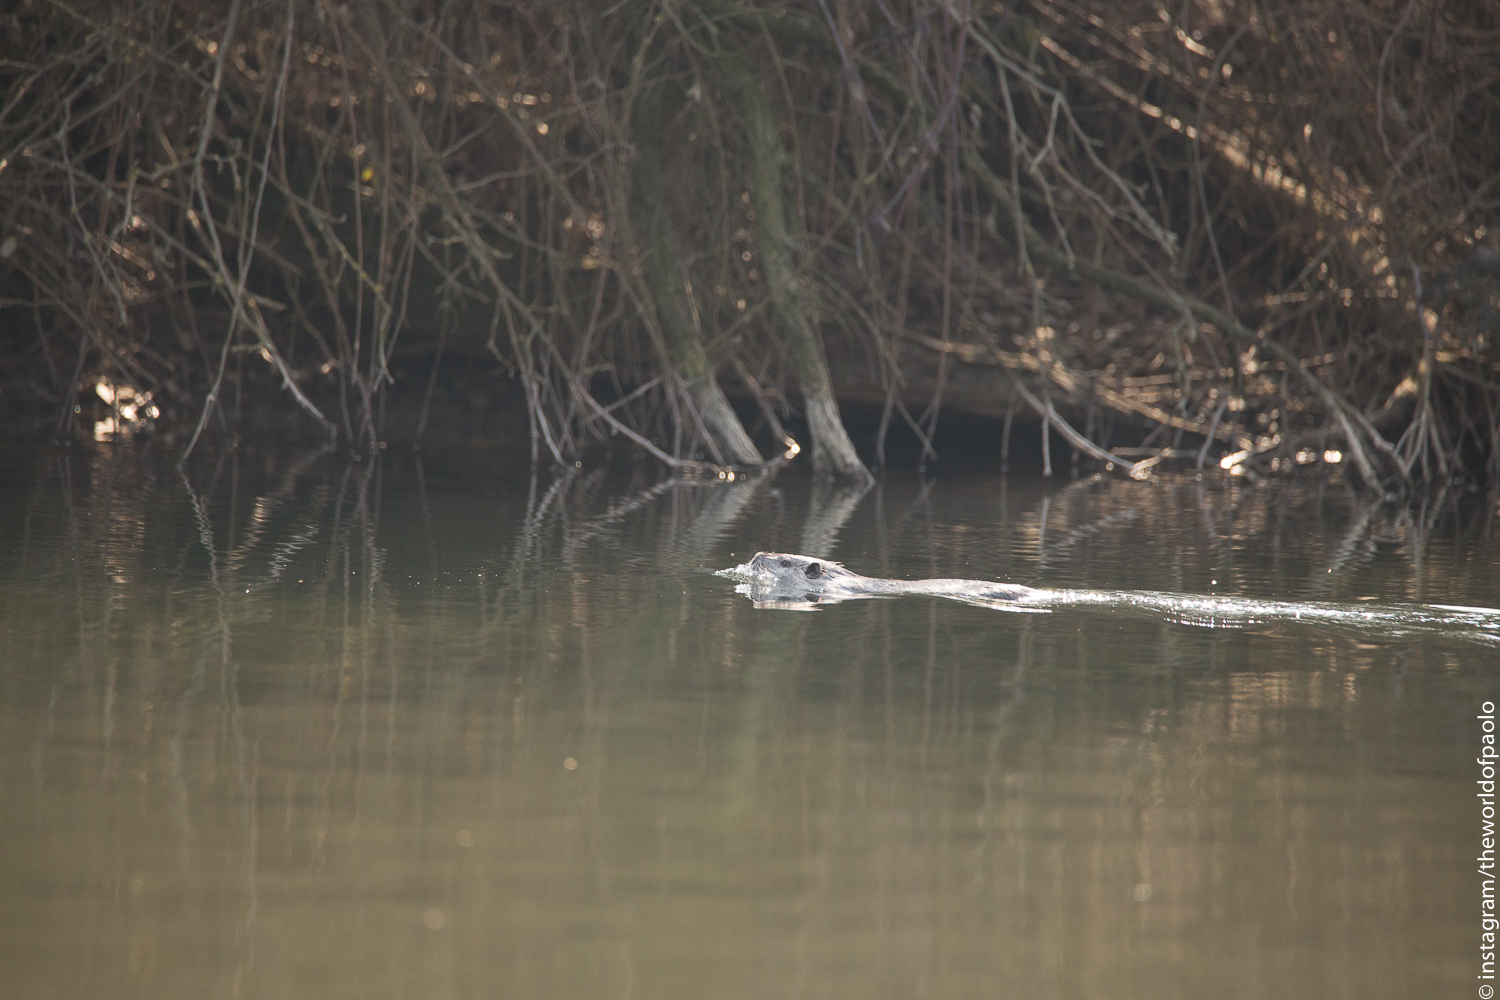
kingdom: Animalia
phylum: Chordata
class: Mammalia
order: Rodentia
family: Myocastoridae
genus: Myocastor
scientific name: Myocastor coypus
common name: Coypu
